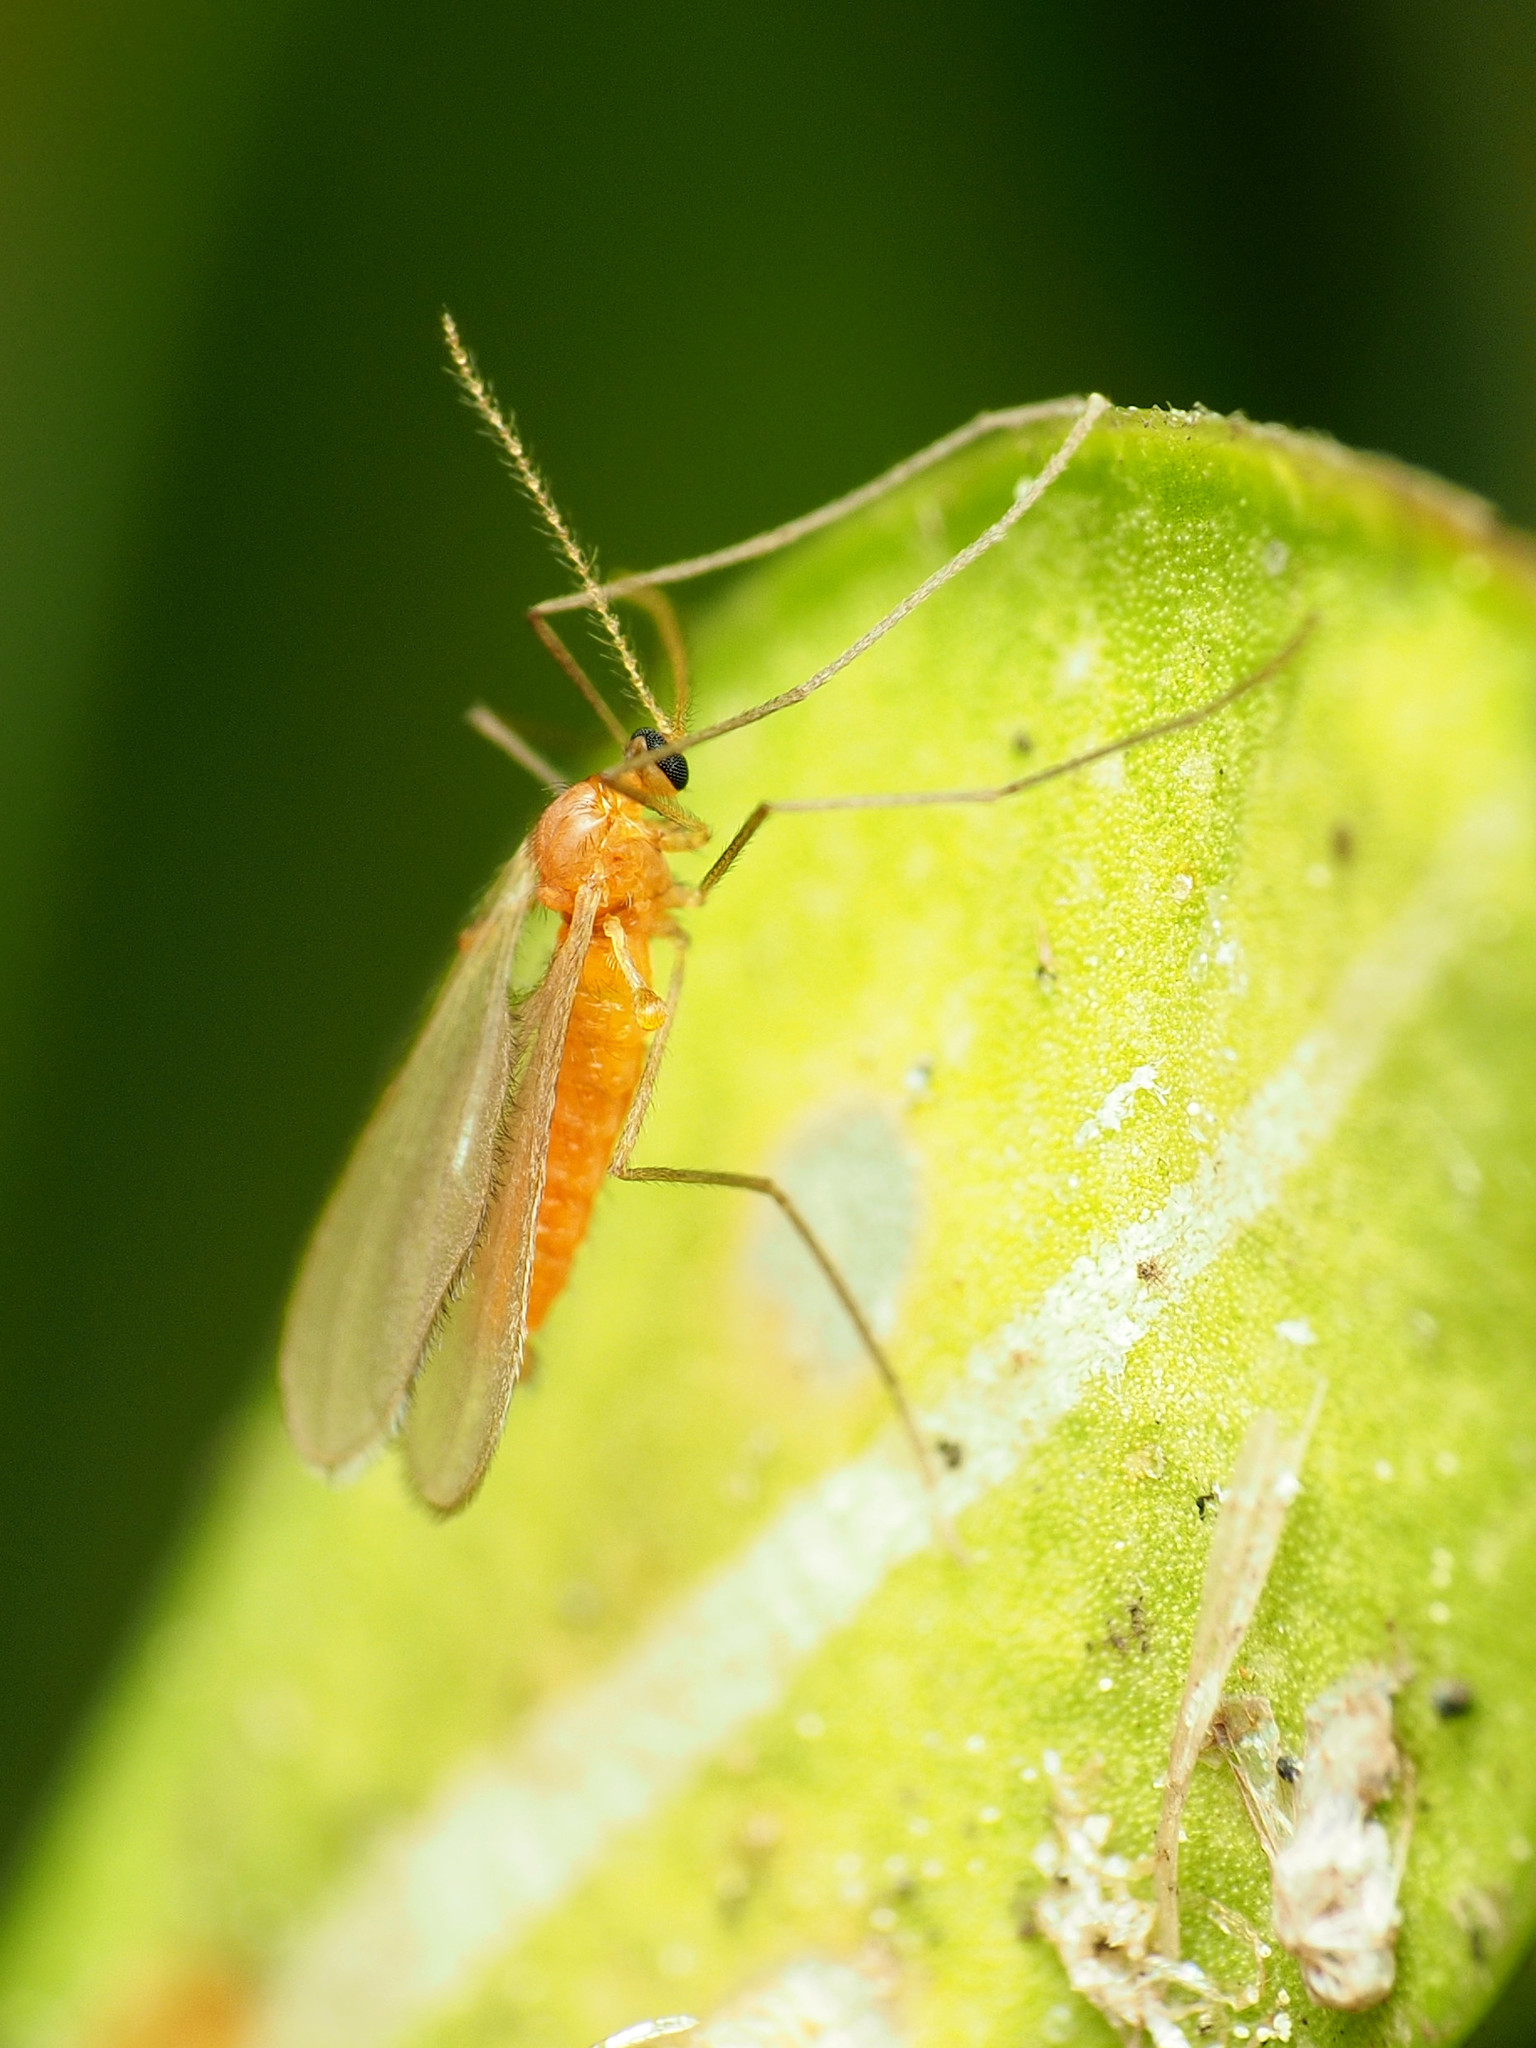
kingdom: Animalia
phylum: Arthropoda
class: Insecta
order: Diptera
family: Cecidomyiidae
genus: Monarthropalpus
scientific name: Monarthropalpus flavus
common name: Boxwood leafminer
